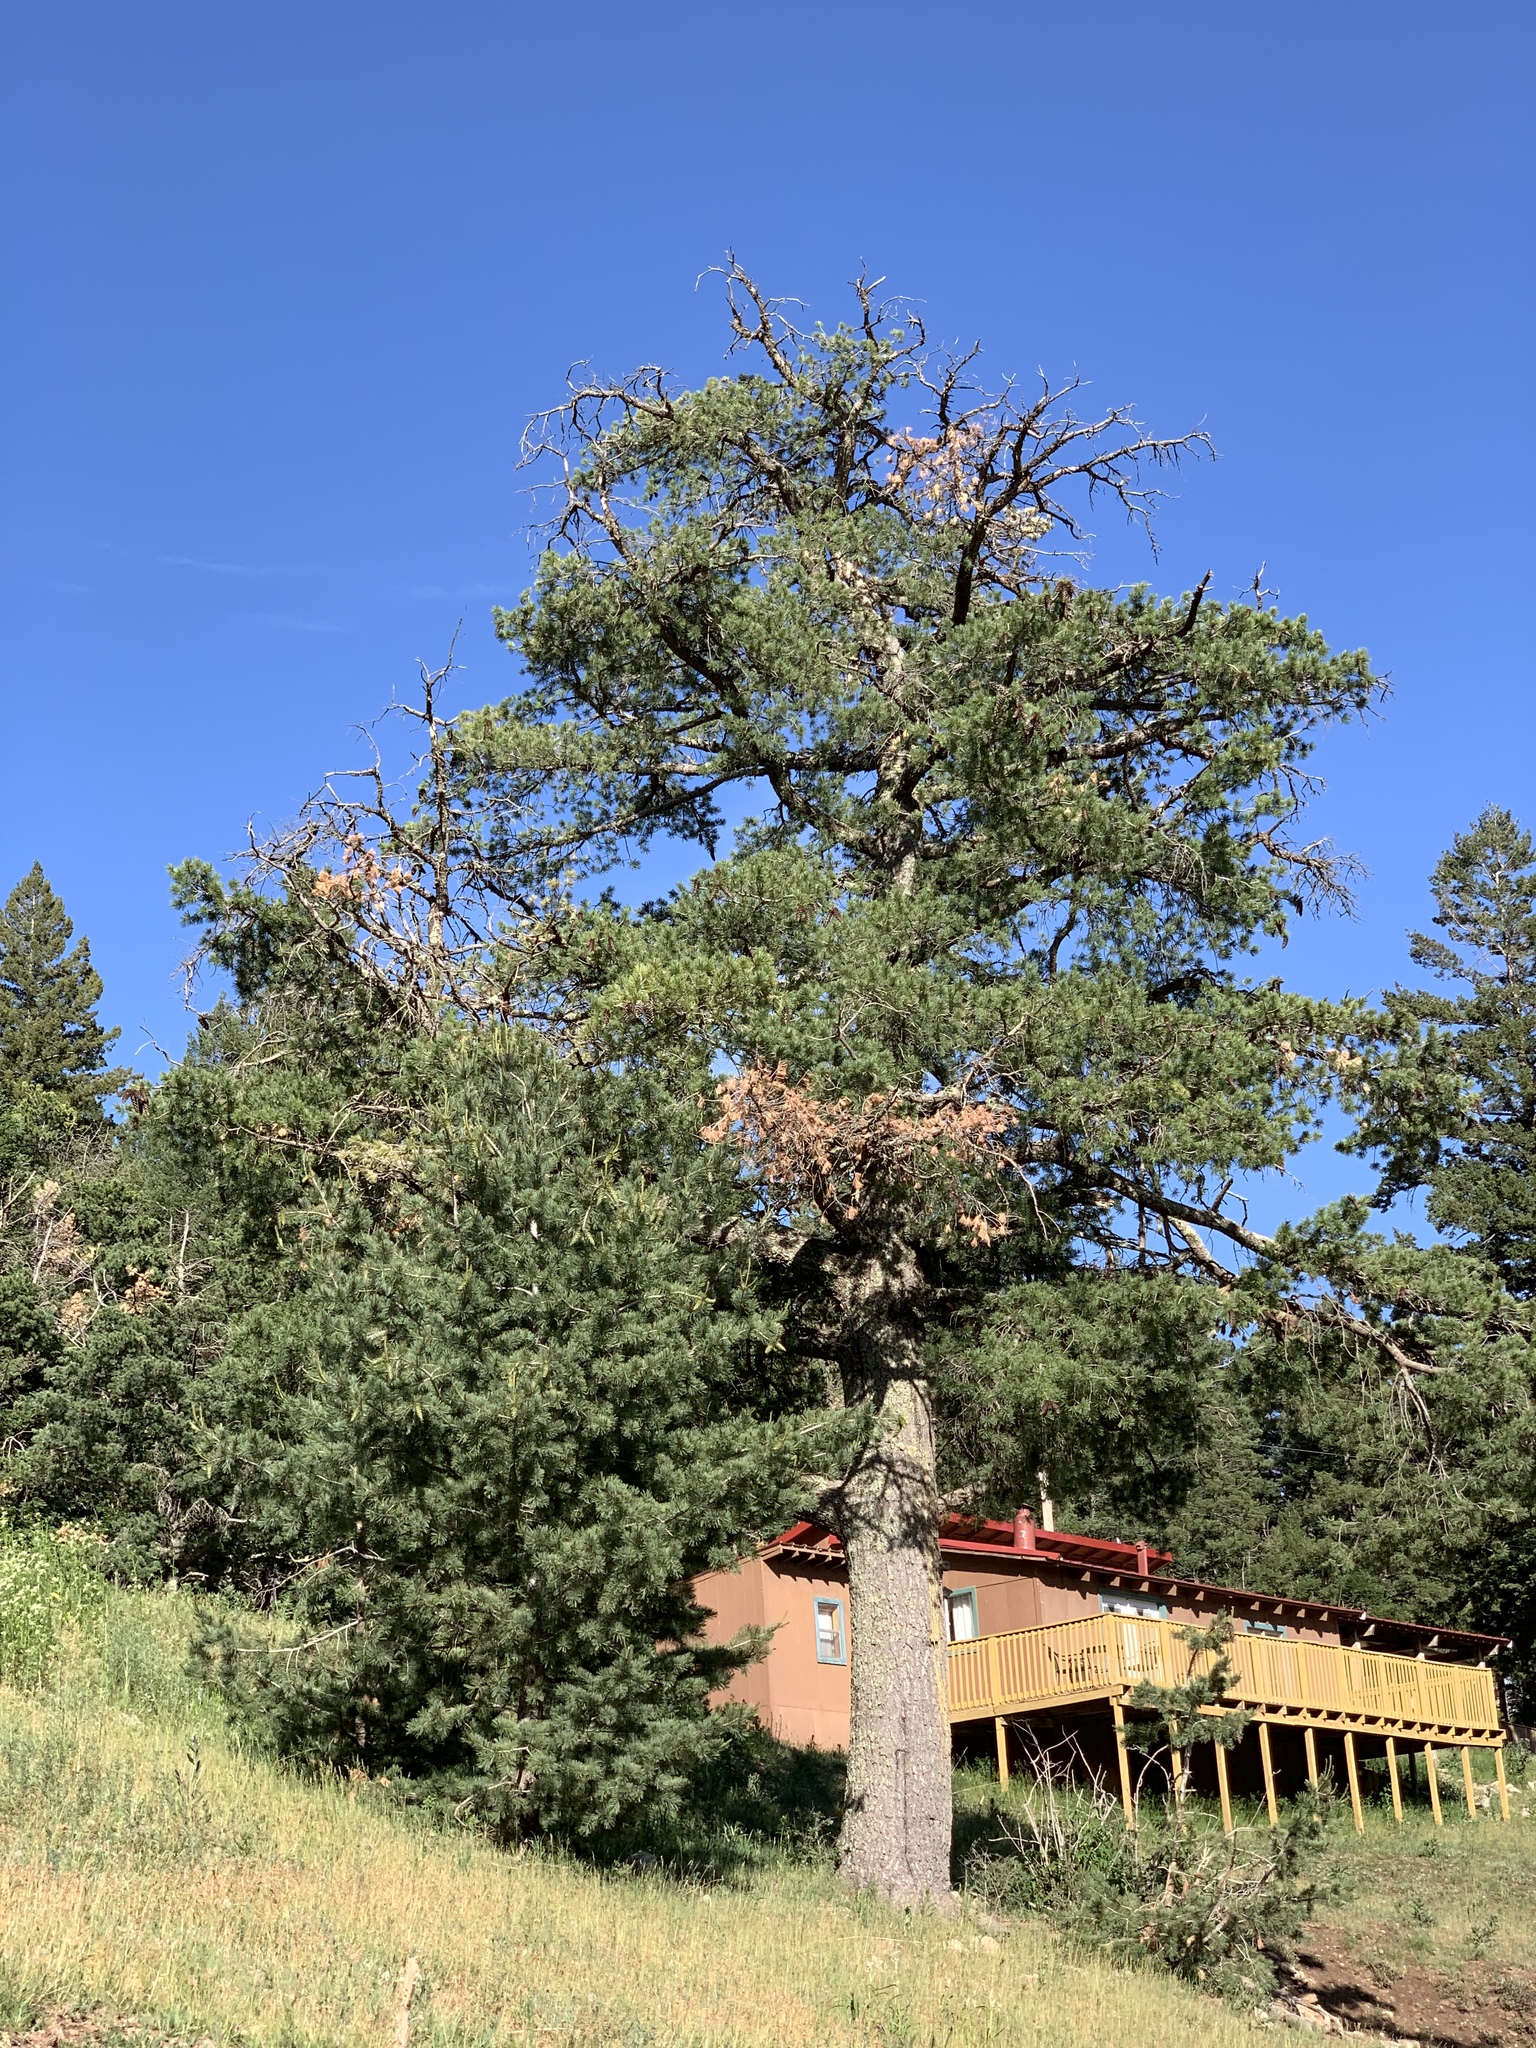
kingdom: Plantae
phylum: Tracheophyta
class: Pinopsida
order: Pinales
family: Pinaceae
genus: Pinus
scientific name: Pinus strobiformis
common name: Southwestern white pine
